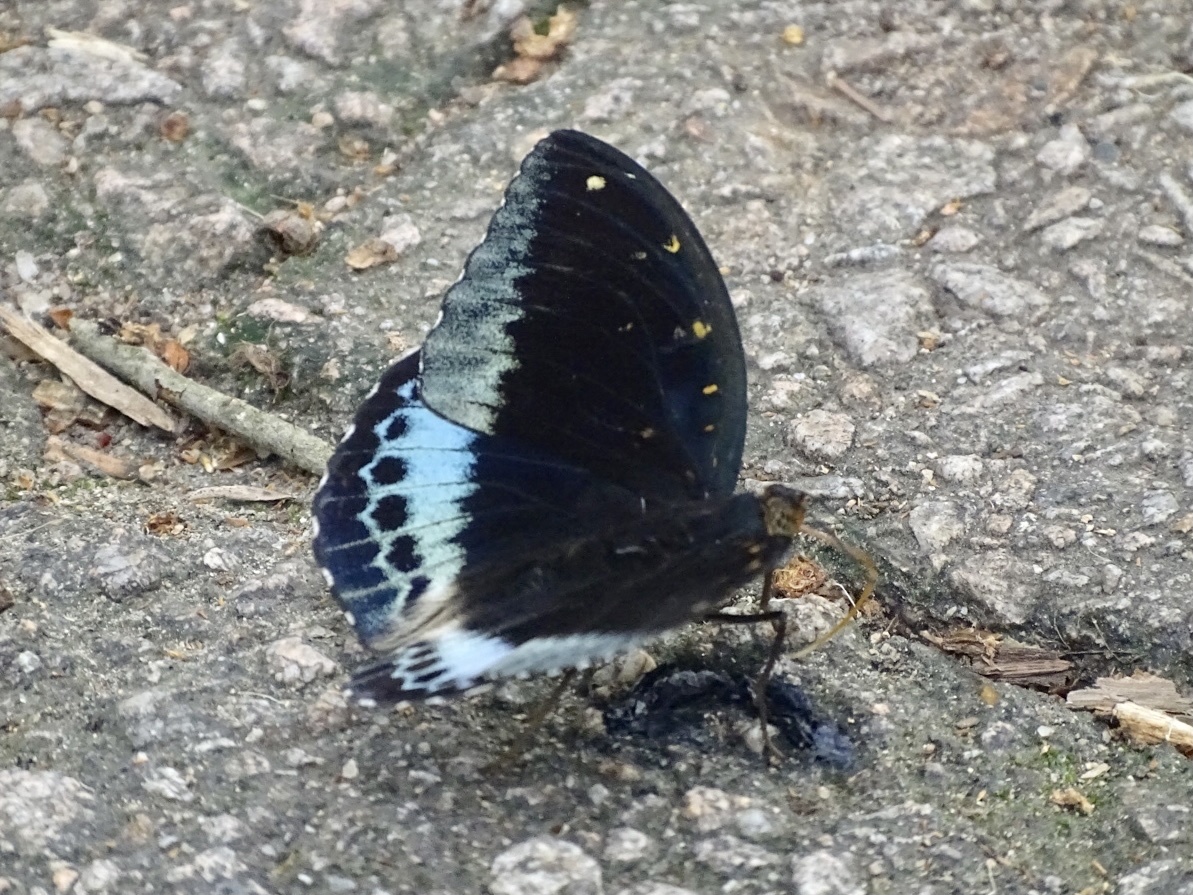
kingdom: Animalia
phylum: Arthropoda
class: Insecta
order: Lepidoptera
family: Nymphalidae
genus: Lexias
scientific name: Lexias pardalis
